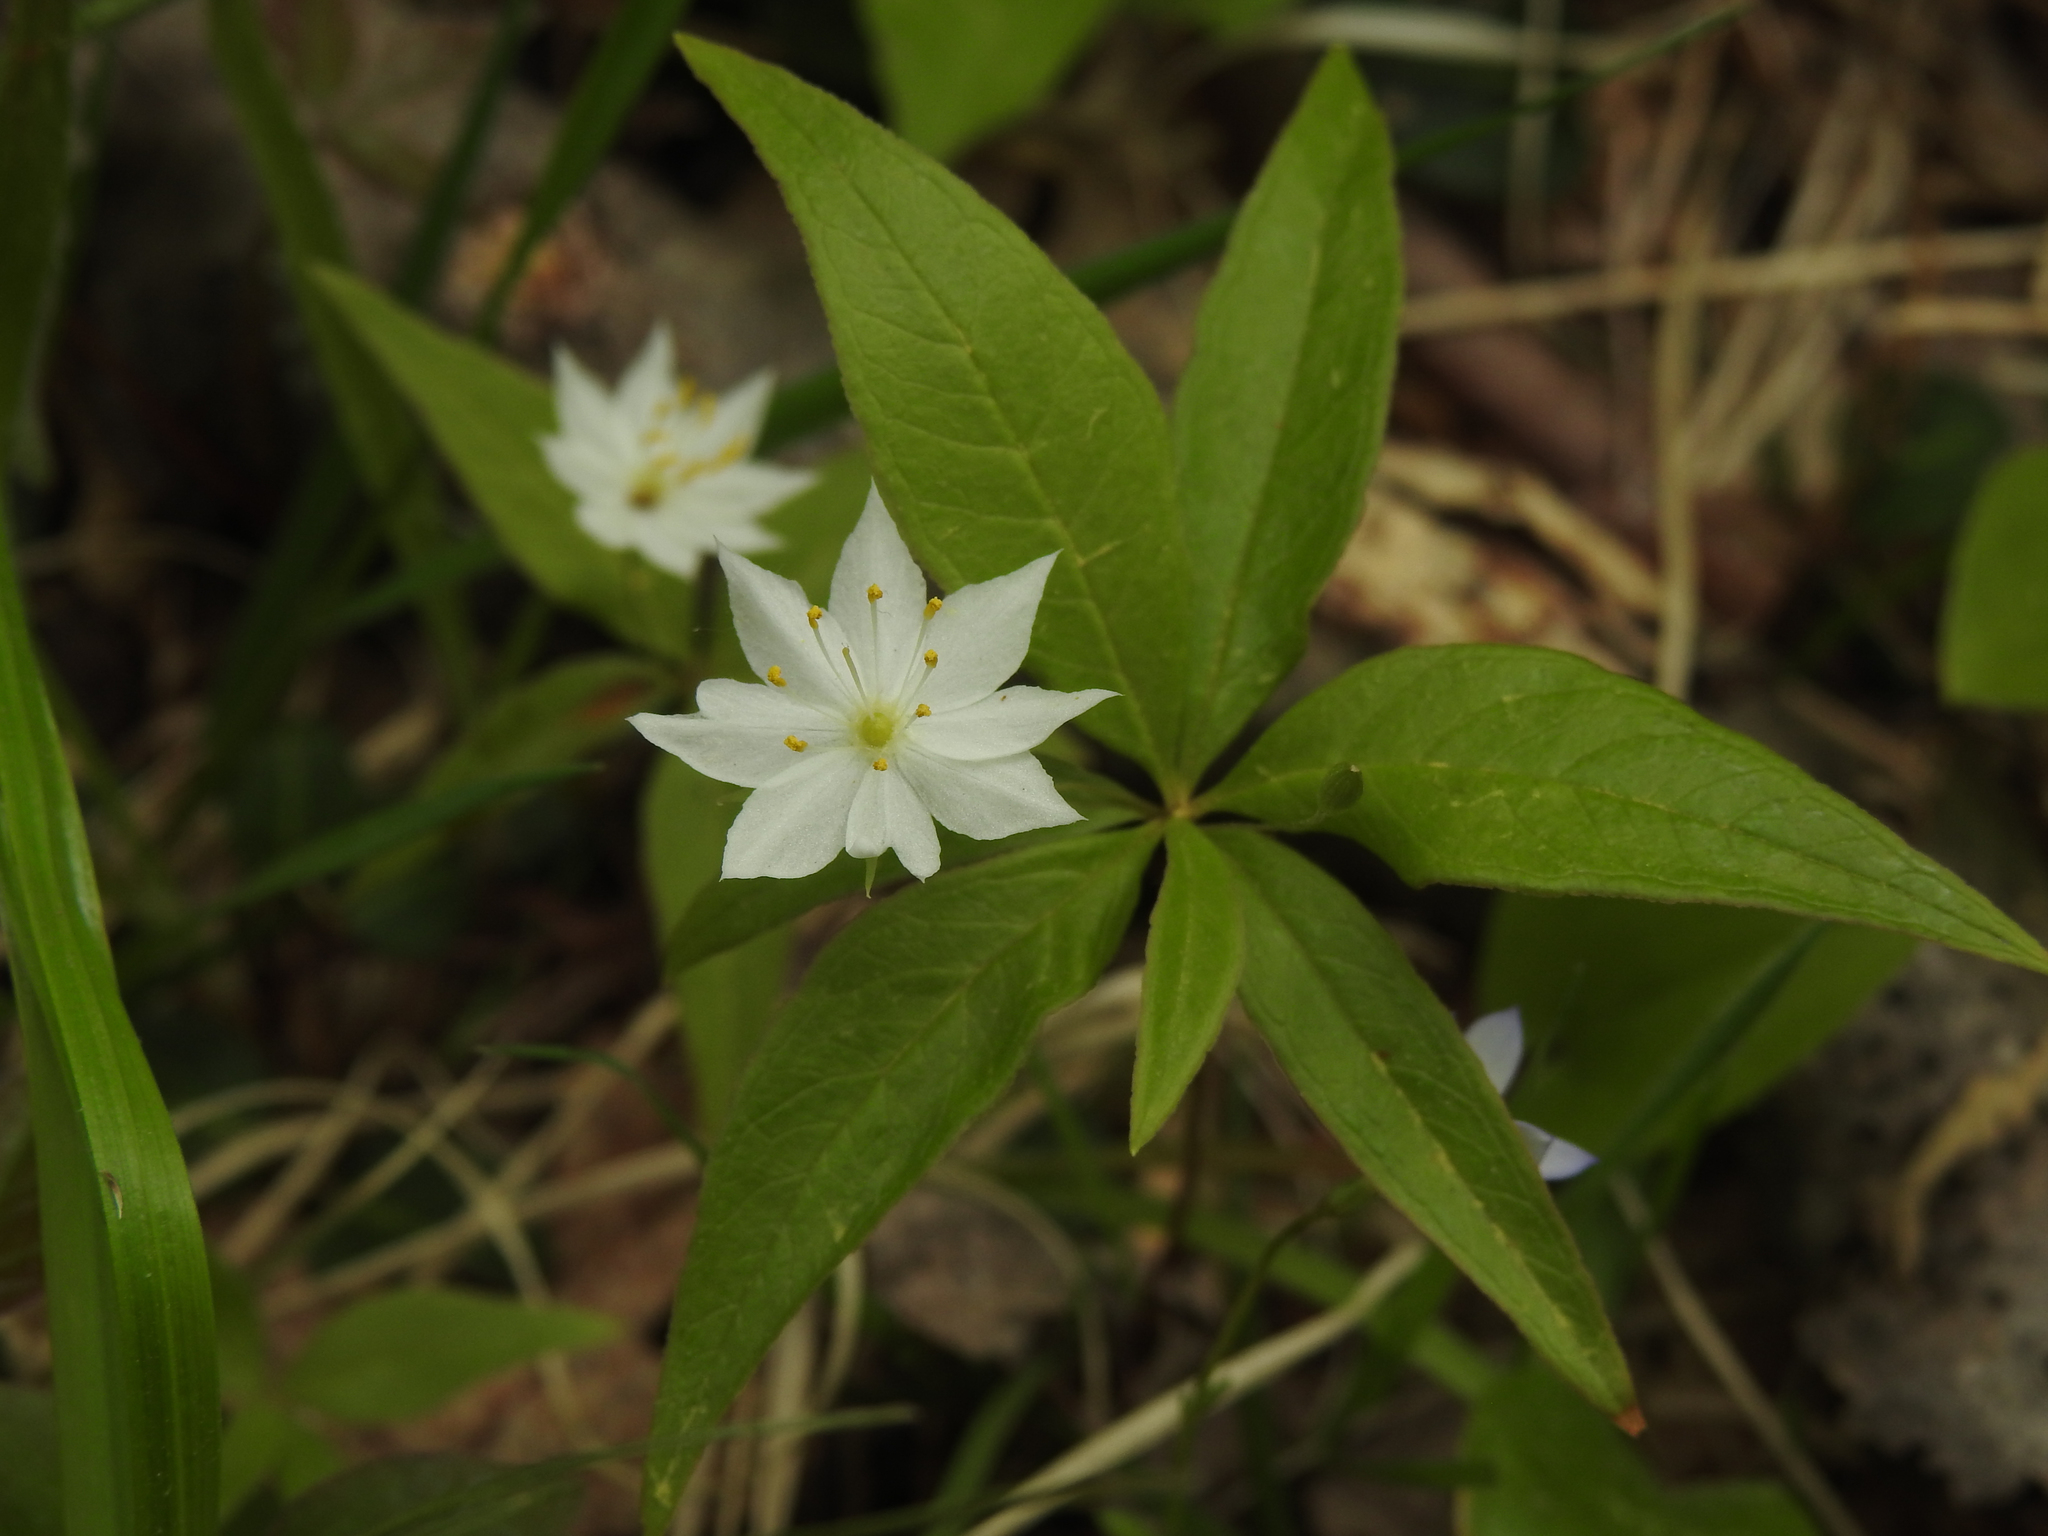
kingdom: Plantae
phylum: Tracheophyta
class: Magnoliopsida
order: Ericales
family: Primulaceae
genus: Lysimachia
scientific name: Lysimachia borealis
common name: American starflower
